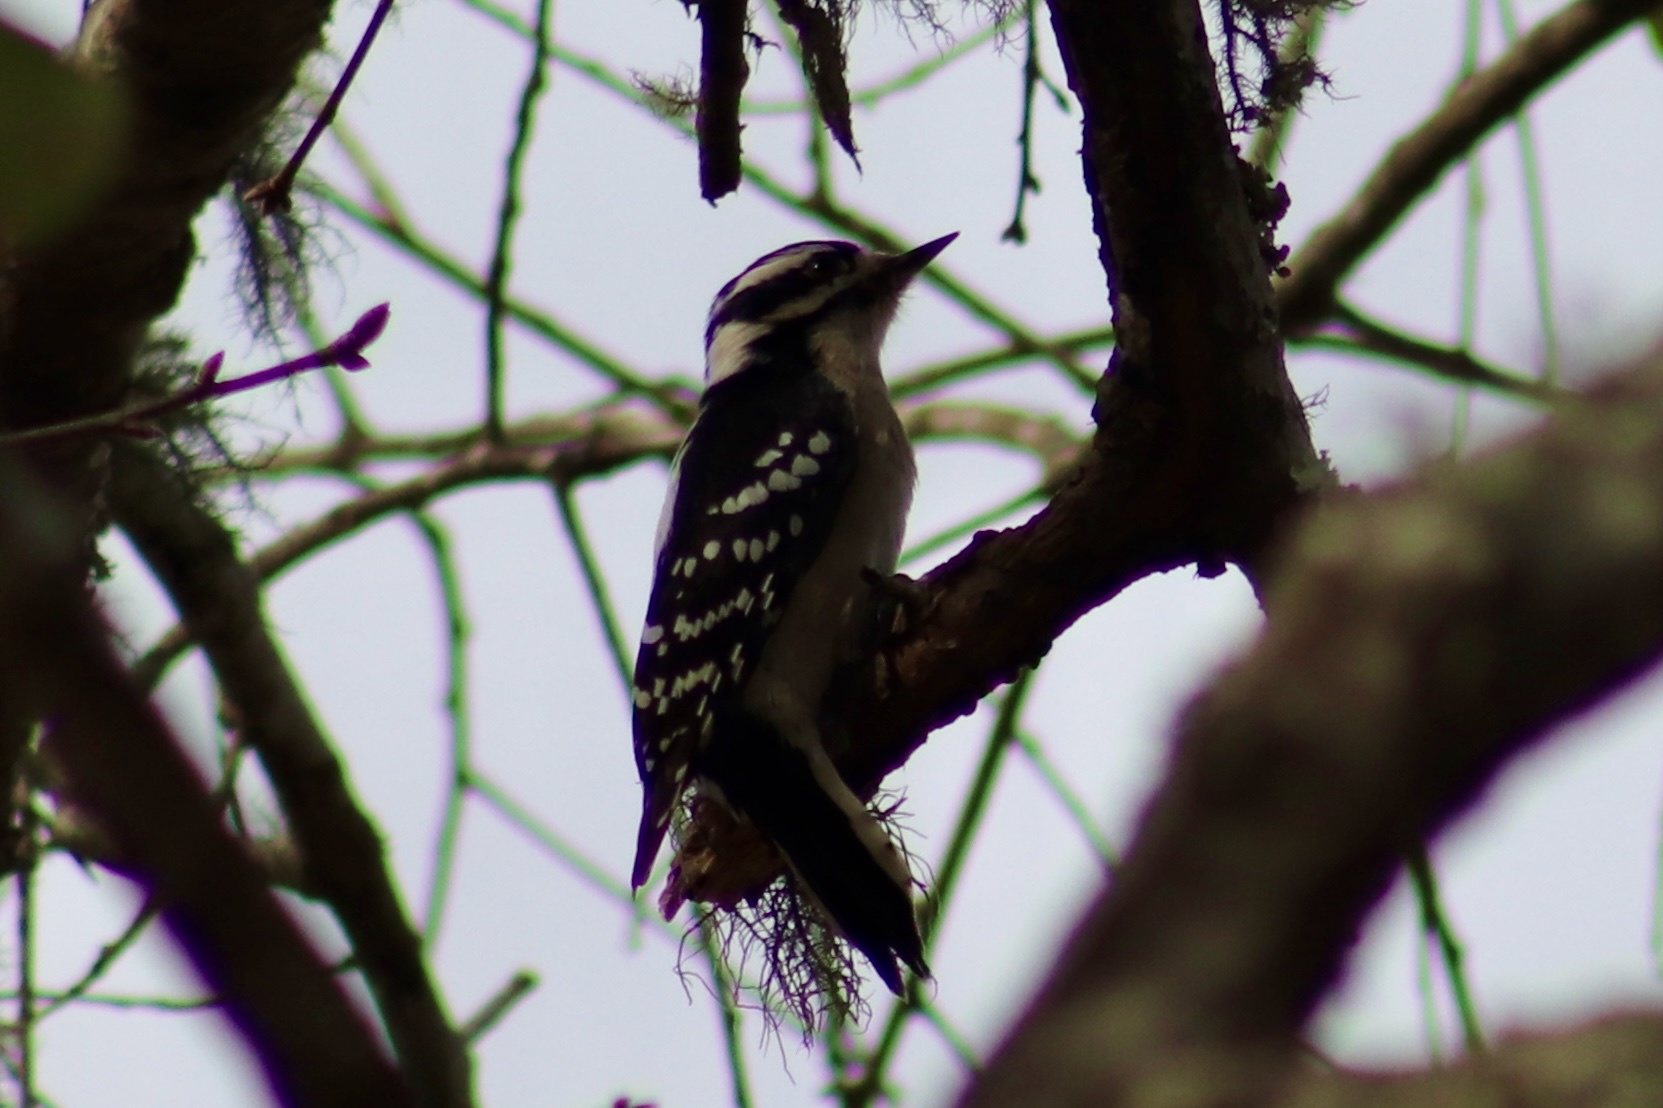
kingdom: Animalia
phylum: Chordata
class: Aves
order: Piciformes
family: Picidae
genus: Dryobates
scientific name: Dryobates pubescens
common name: Downy woodpecker
